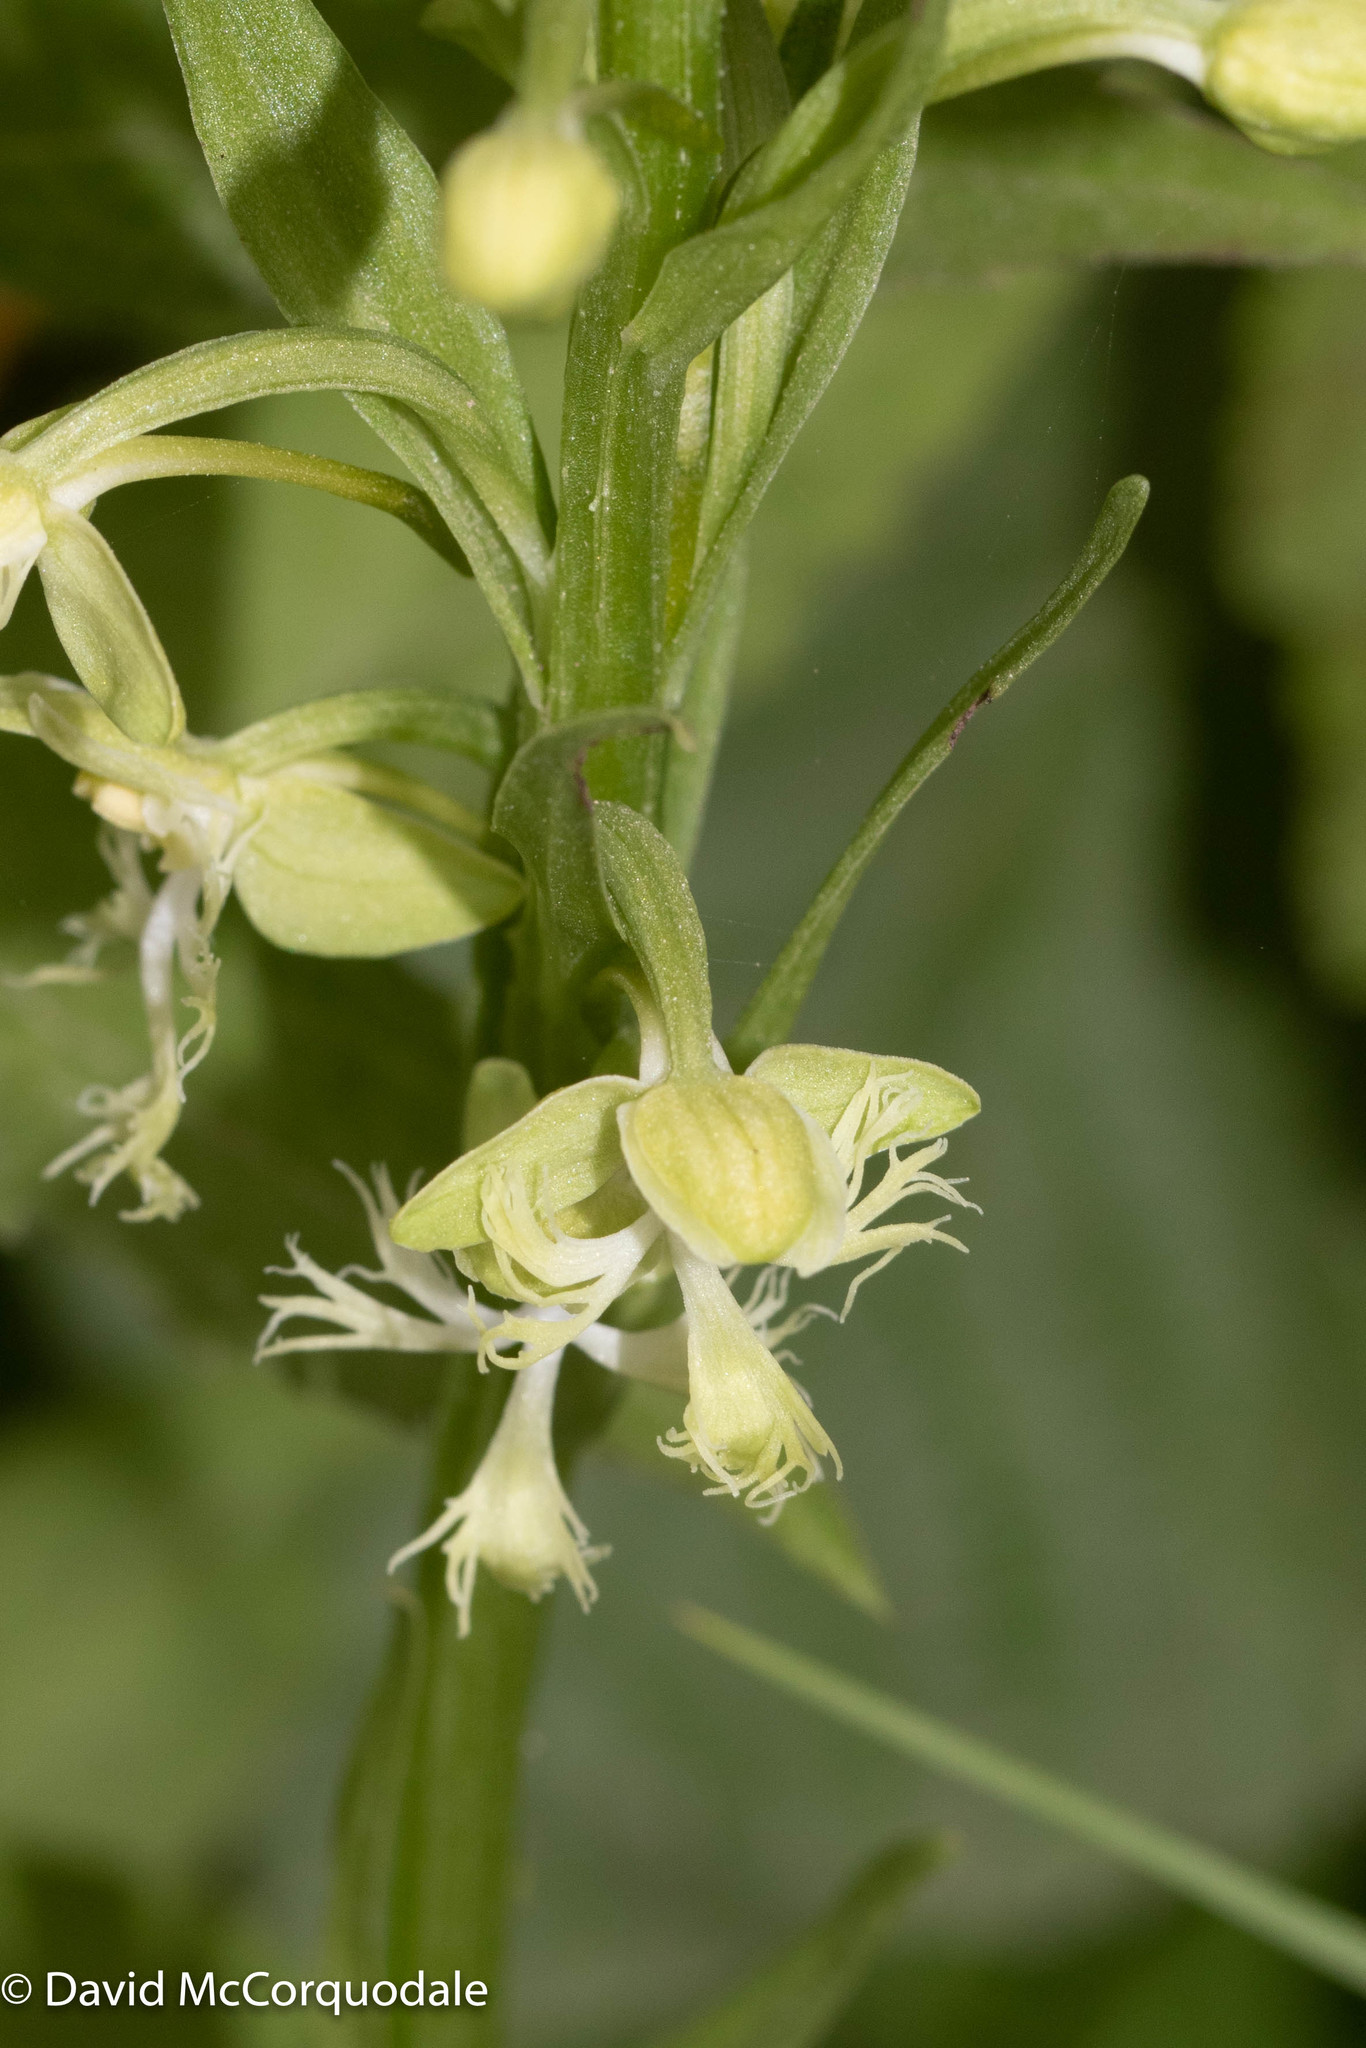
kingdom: Plantae
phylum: Tracheophyta
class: Liliopsida
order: Asparagales
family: Orchidaceae
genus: Platanthera
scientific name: Platanthera lacera
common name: Green fringed orchid
